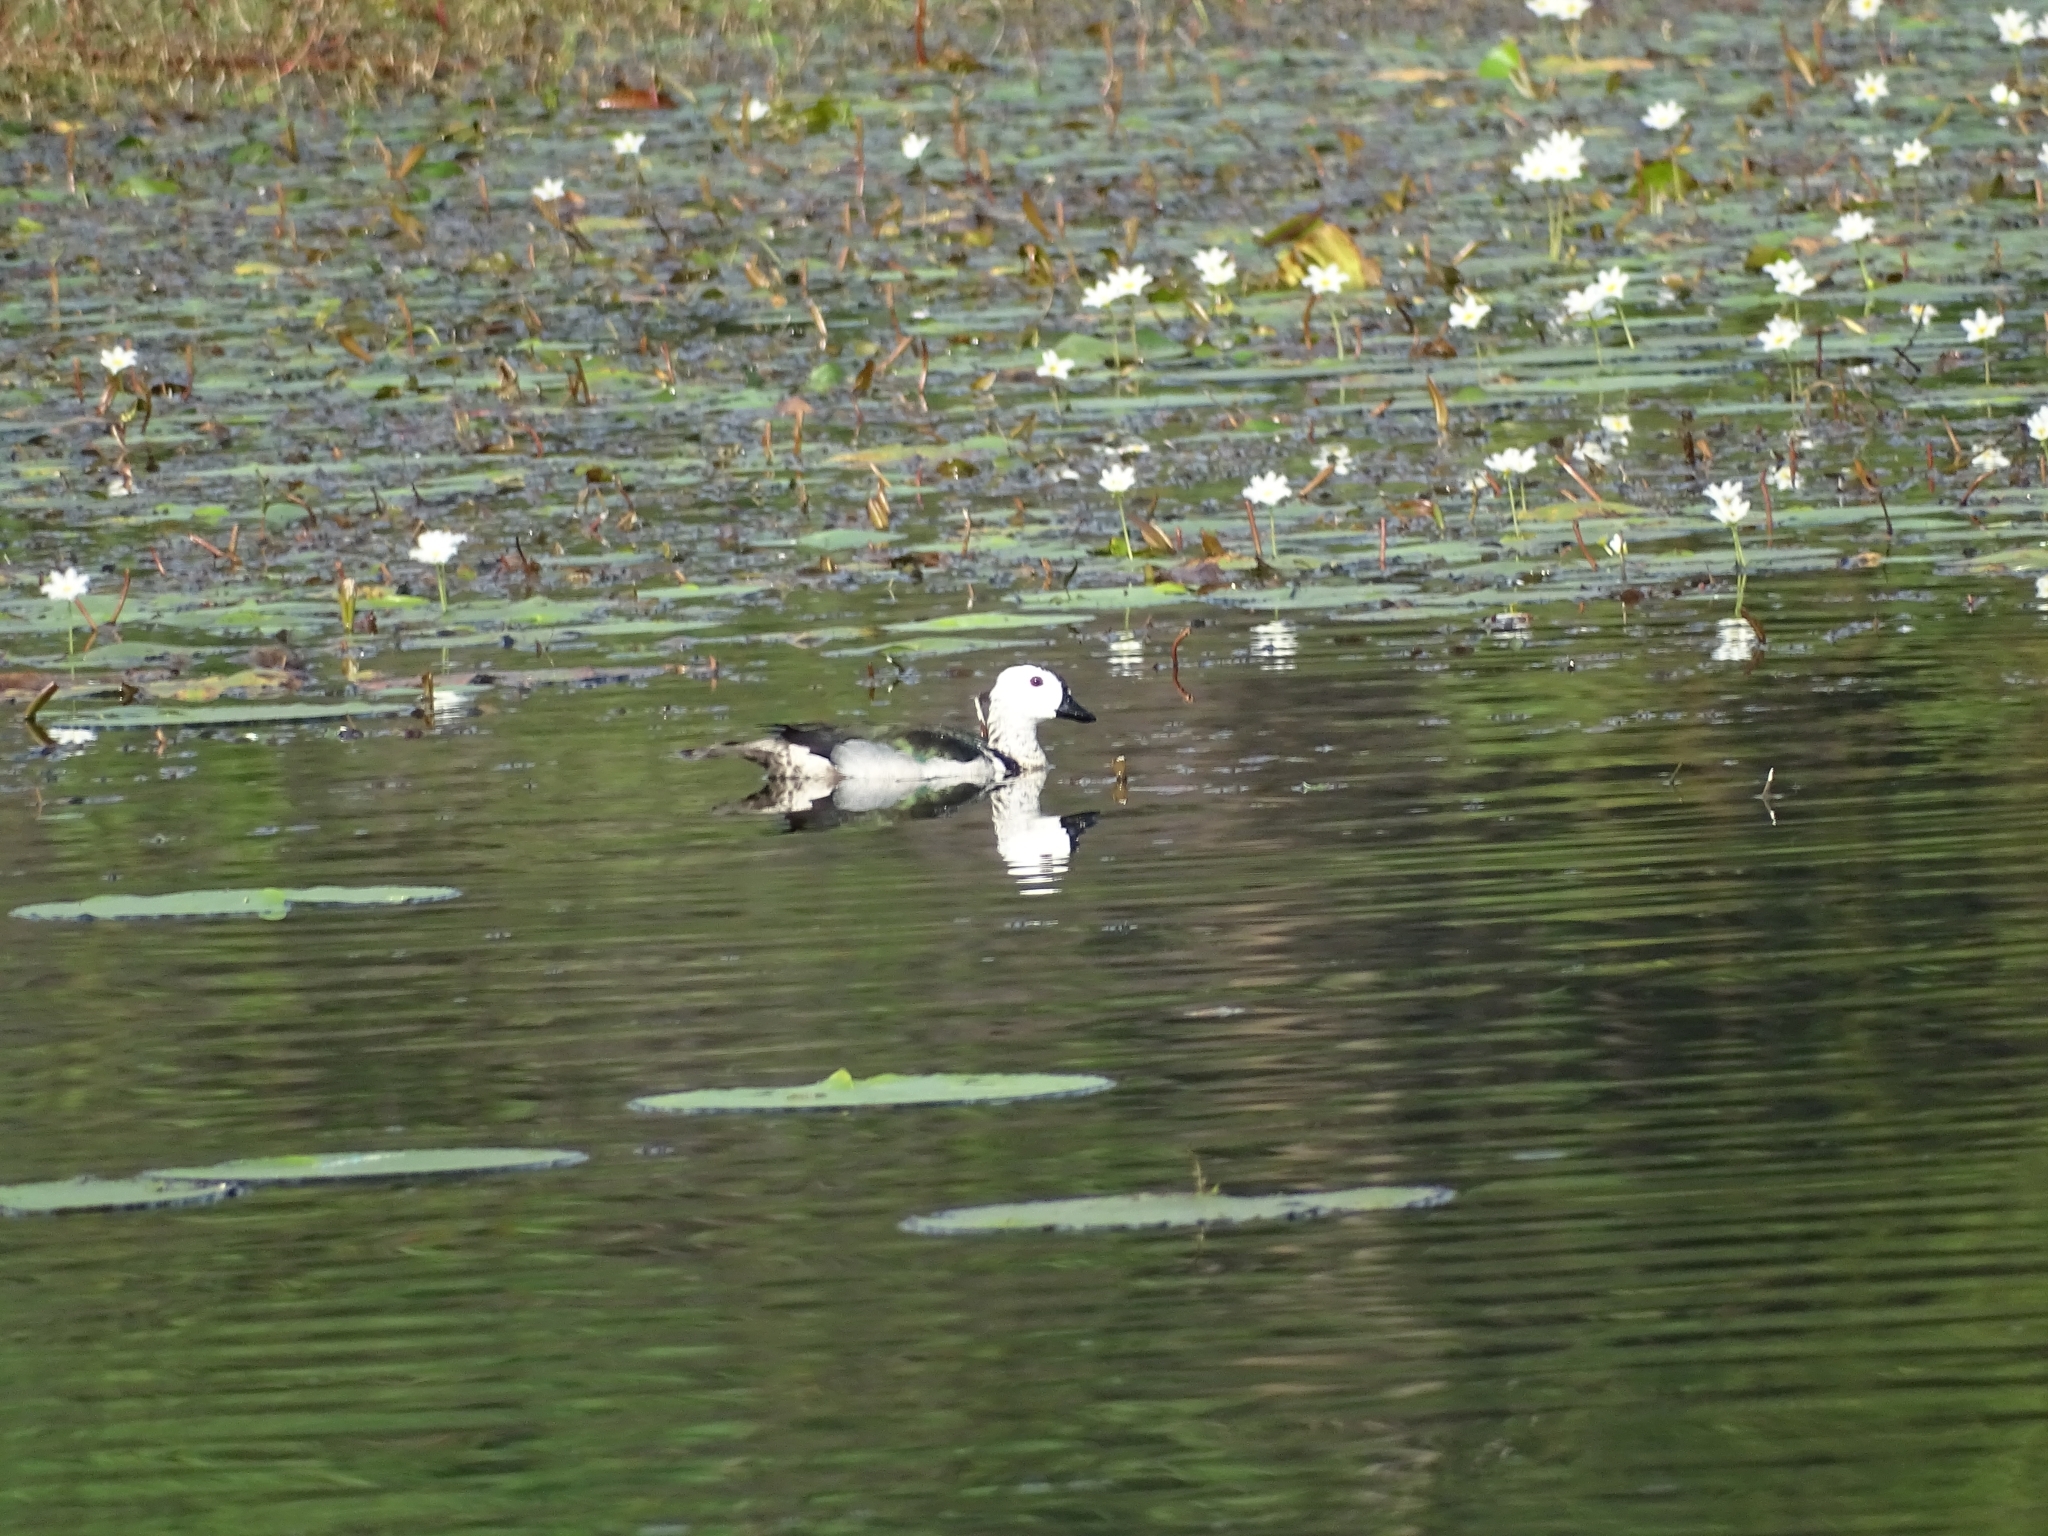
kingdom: Animalia
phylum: Chordata
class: Aves
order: Anseriformes
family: Anatidae
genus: Nettapus
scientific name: Nettapus coromandelianus
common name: Cotton pygmy-goose
